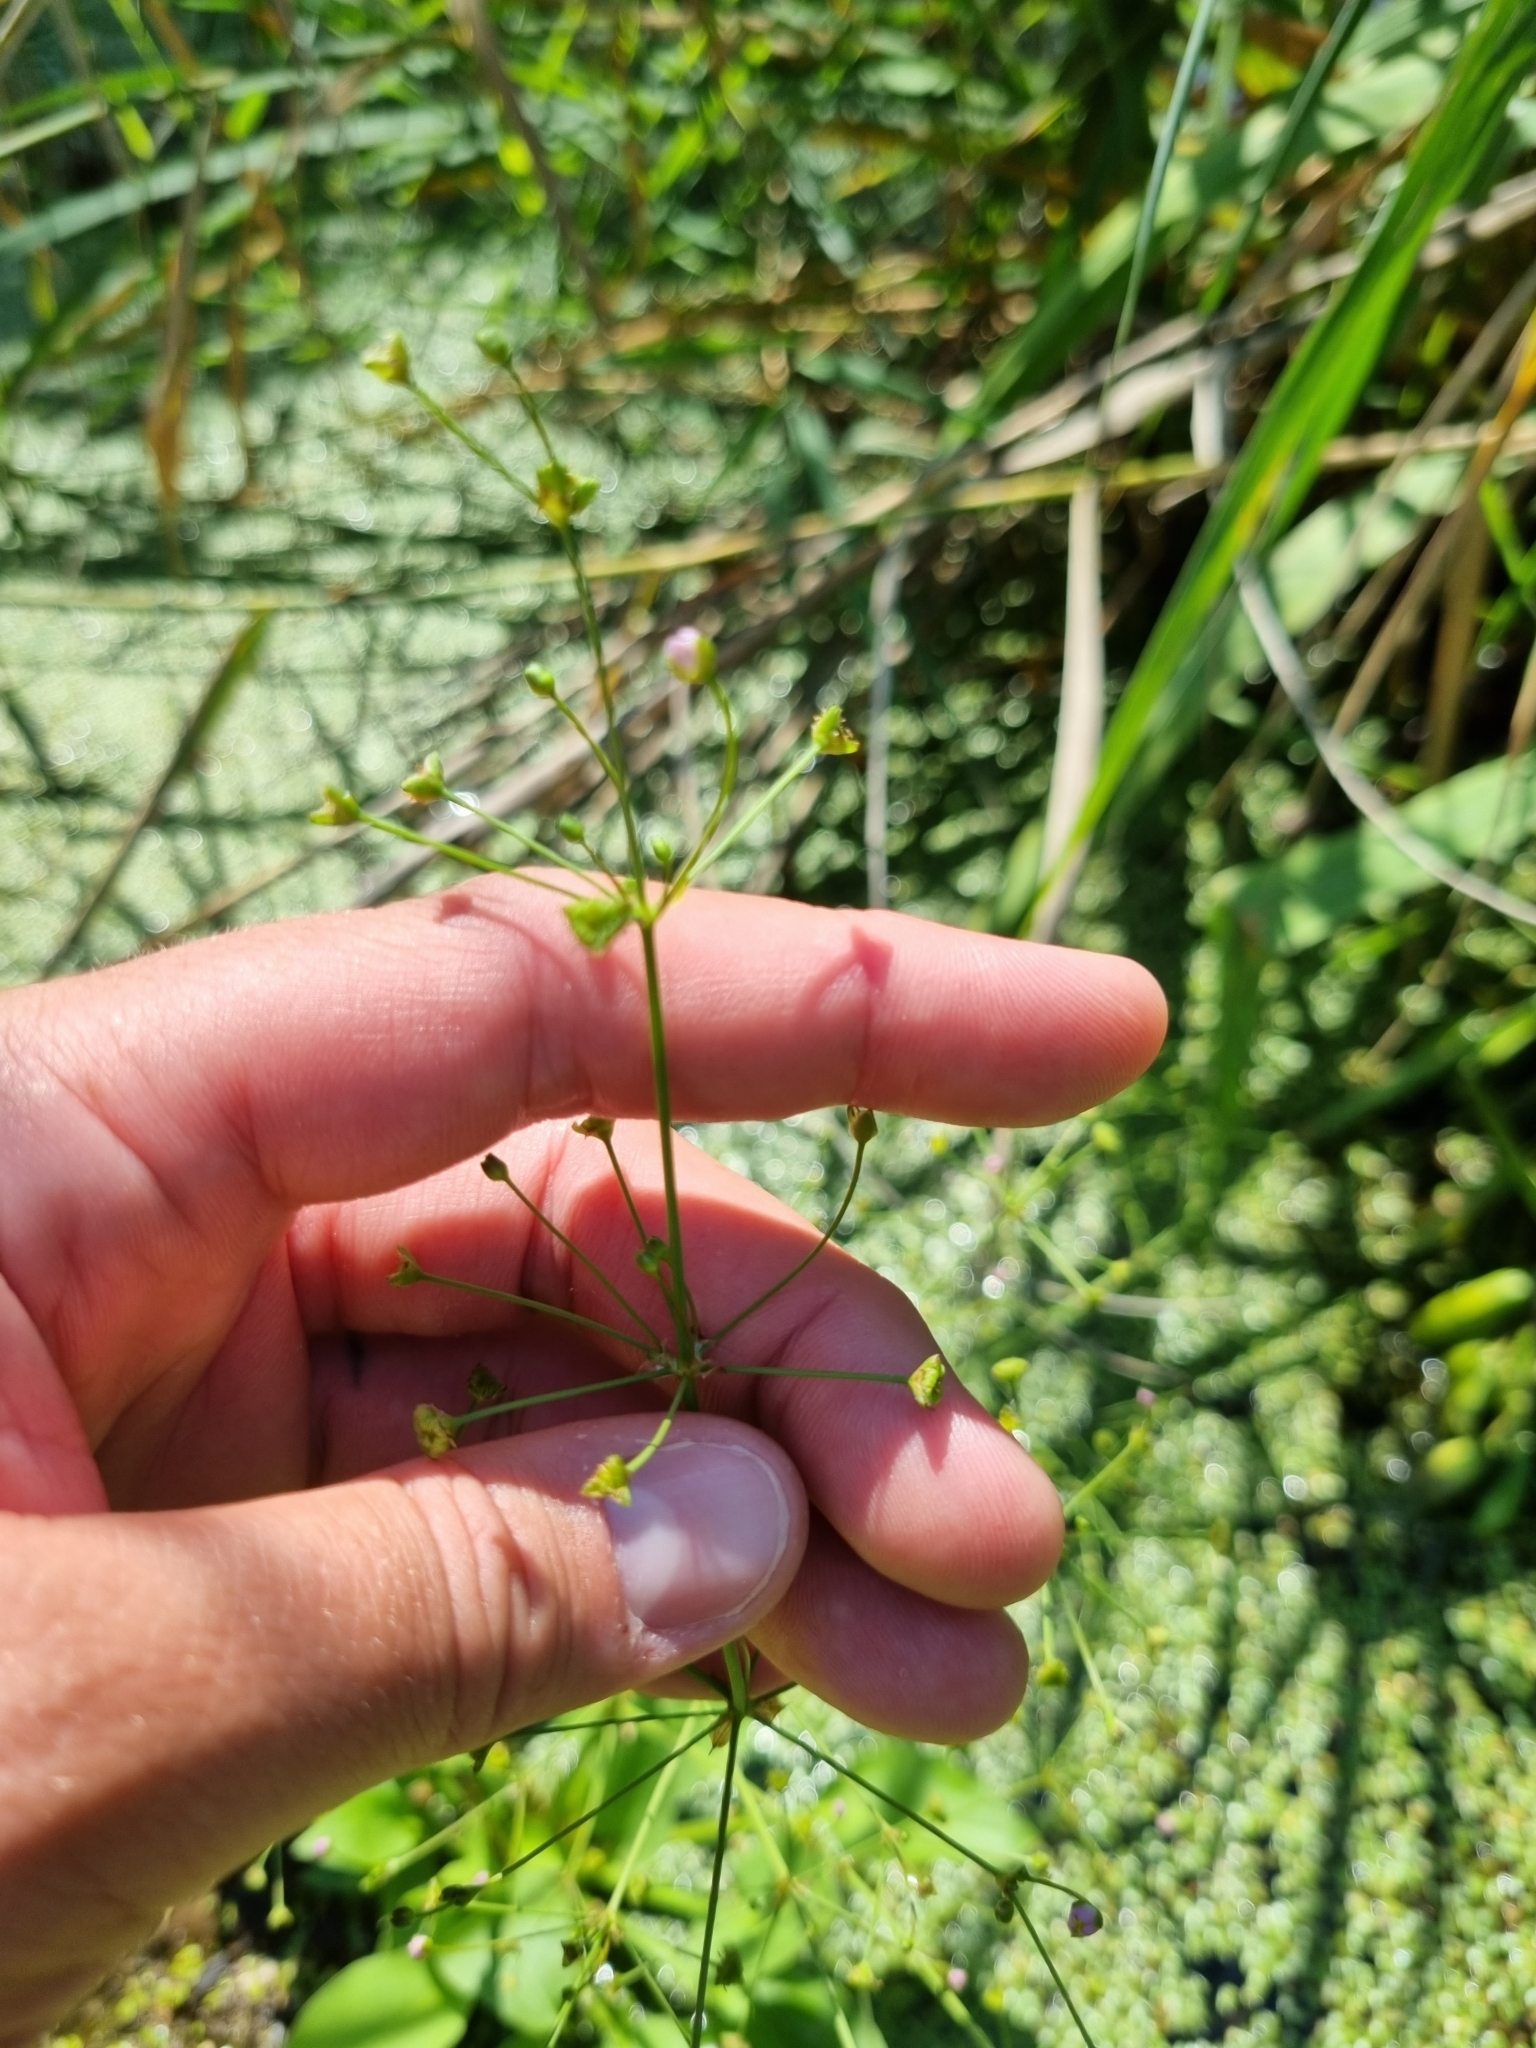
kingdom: Plantae
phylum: Tracheophyta
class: Liliopsida
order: Alismatales
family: Alismataceae
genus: Alisma
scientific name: Alisma plantago-aquatica
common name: Water-plantain
